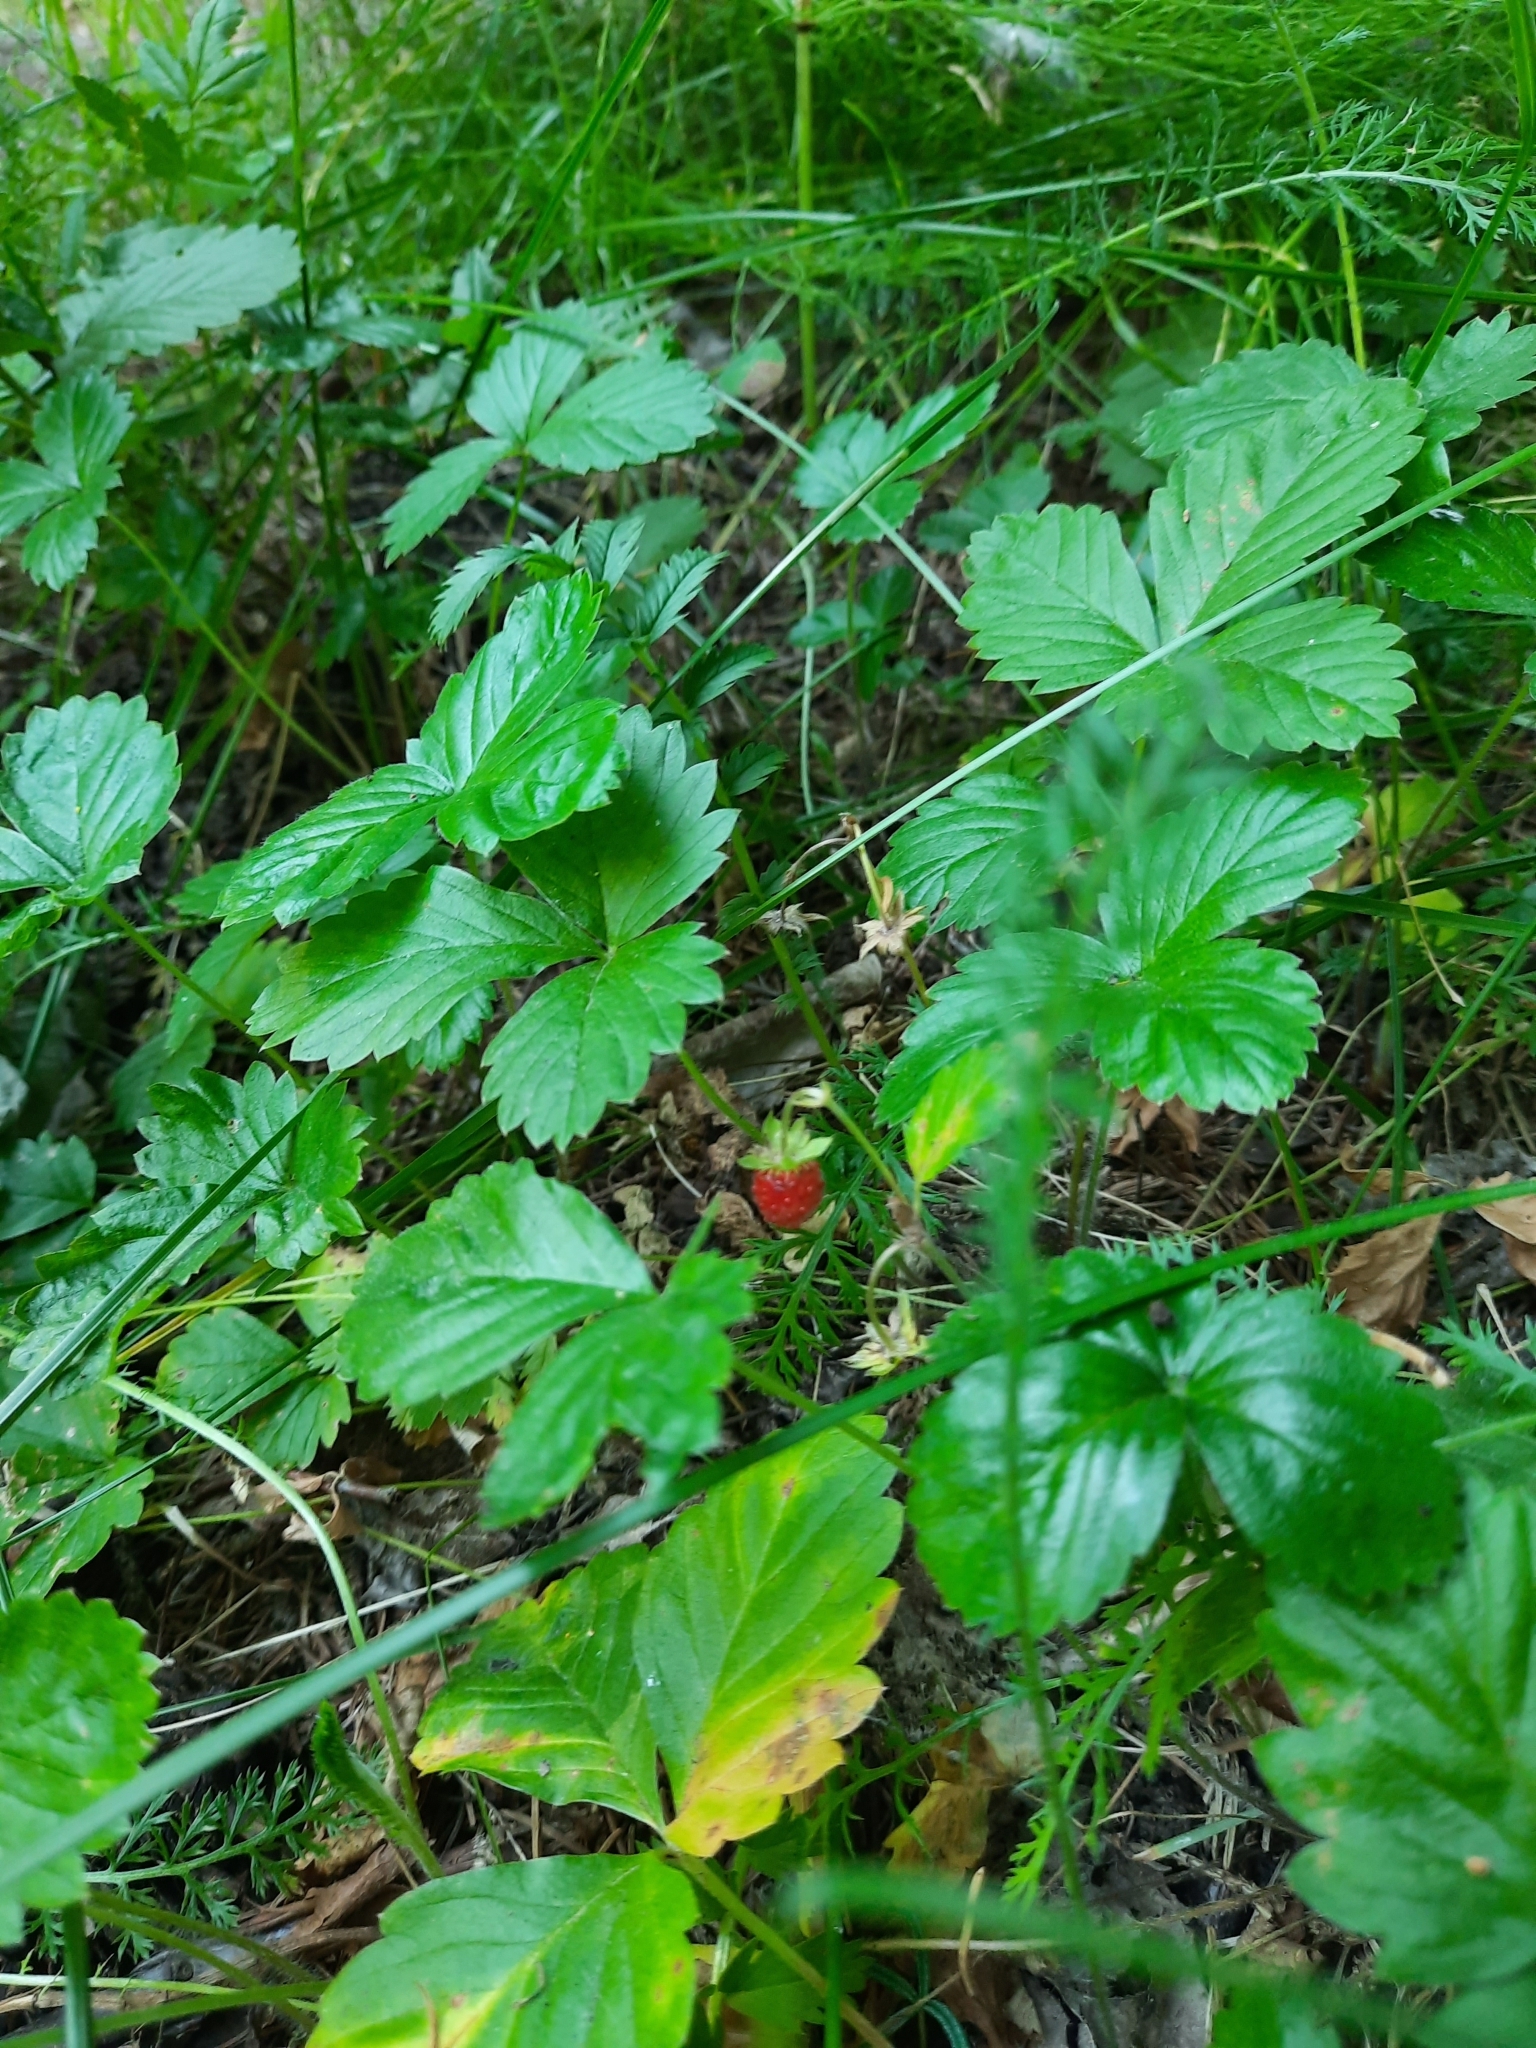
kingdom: Plantae
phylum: Tracheophyta
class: Magnoliopsida
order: Rosales
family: Rosaceae
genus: Fragaria
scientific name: Fragaria vesca
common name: Wild strawberry
